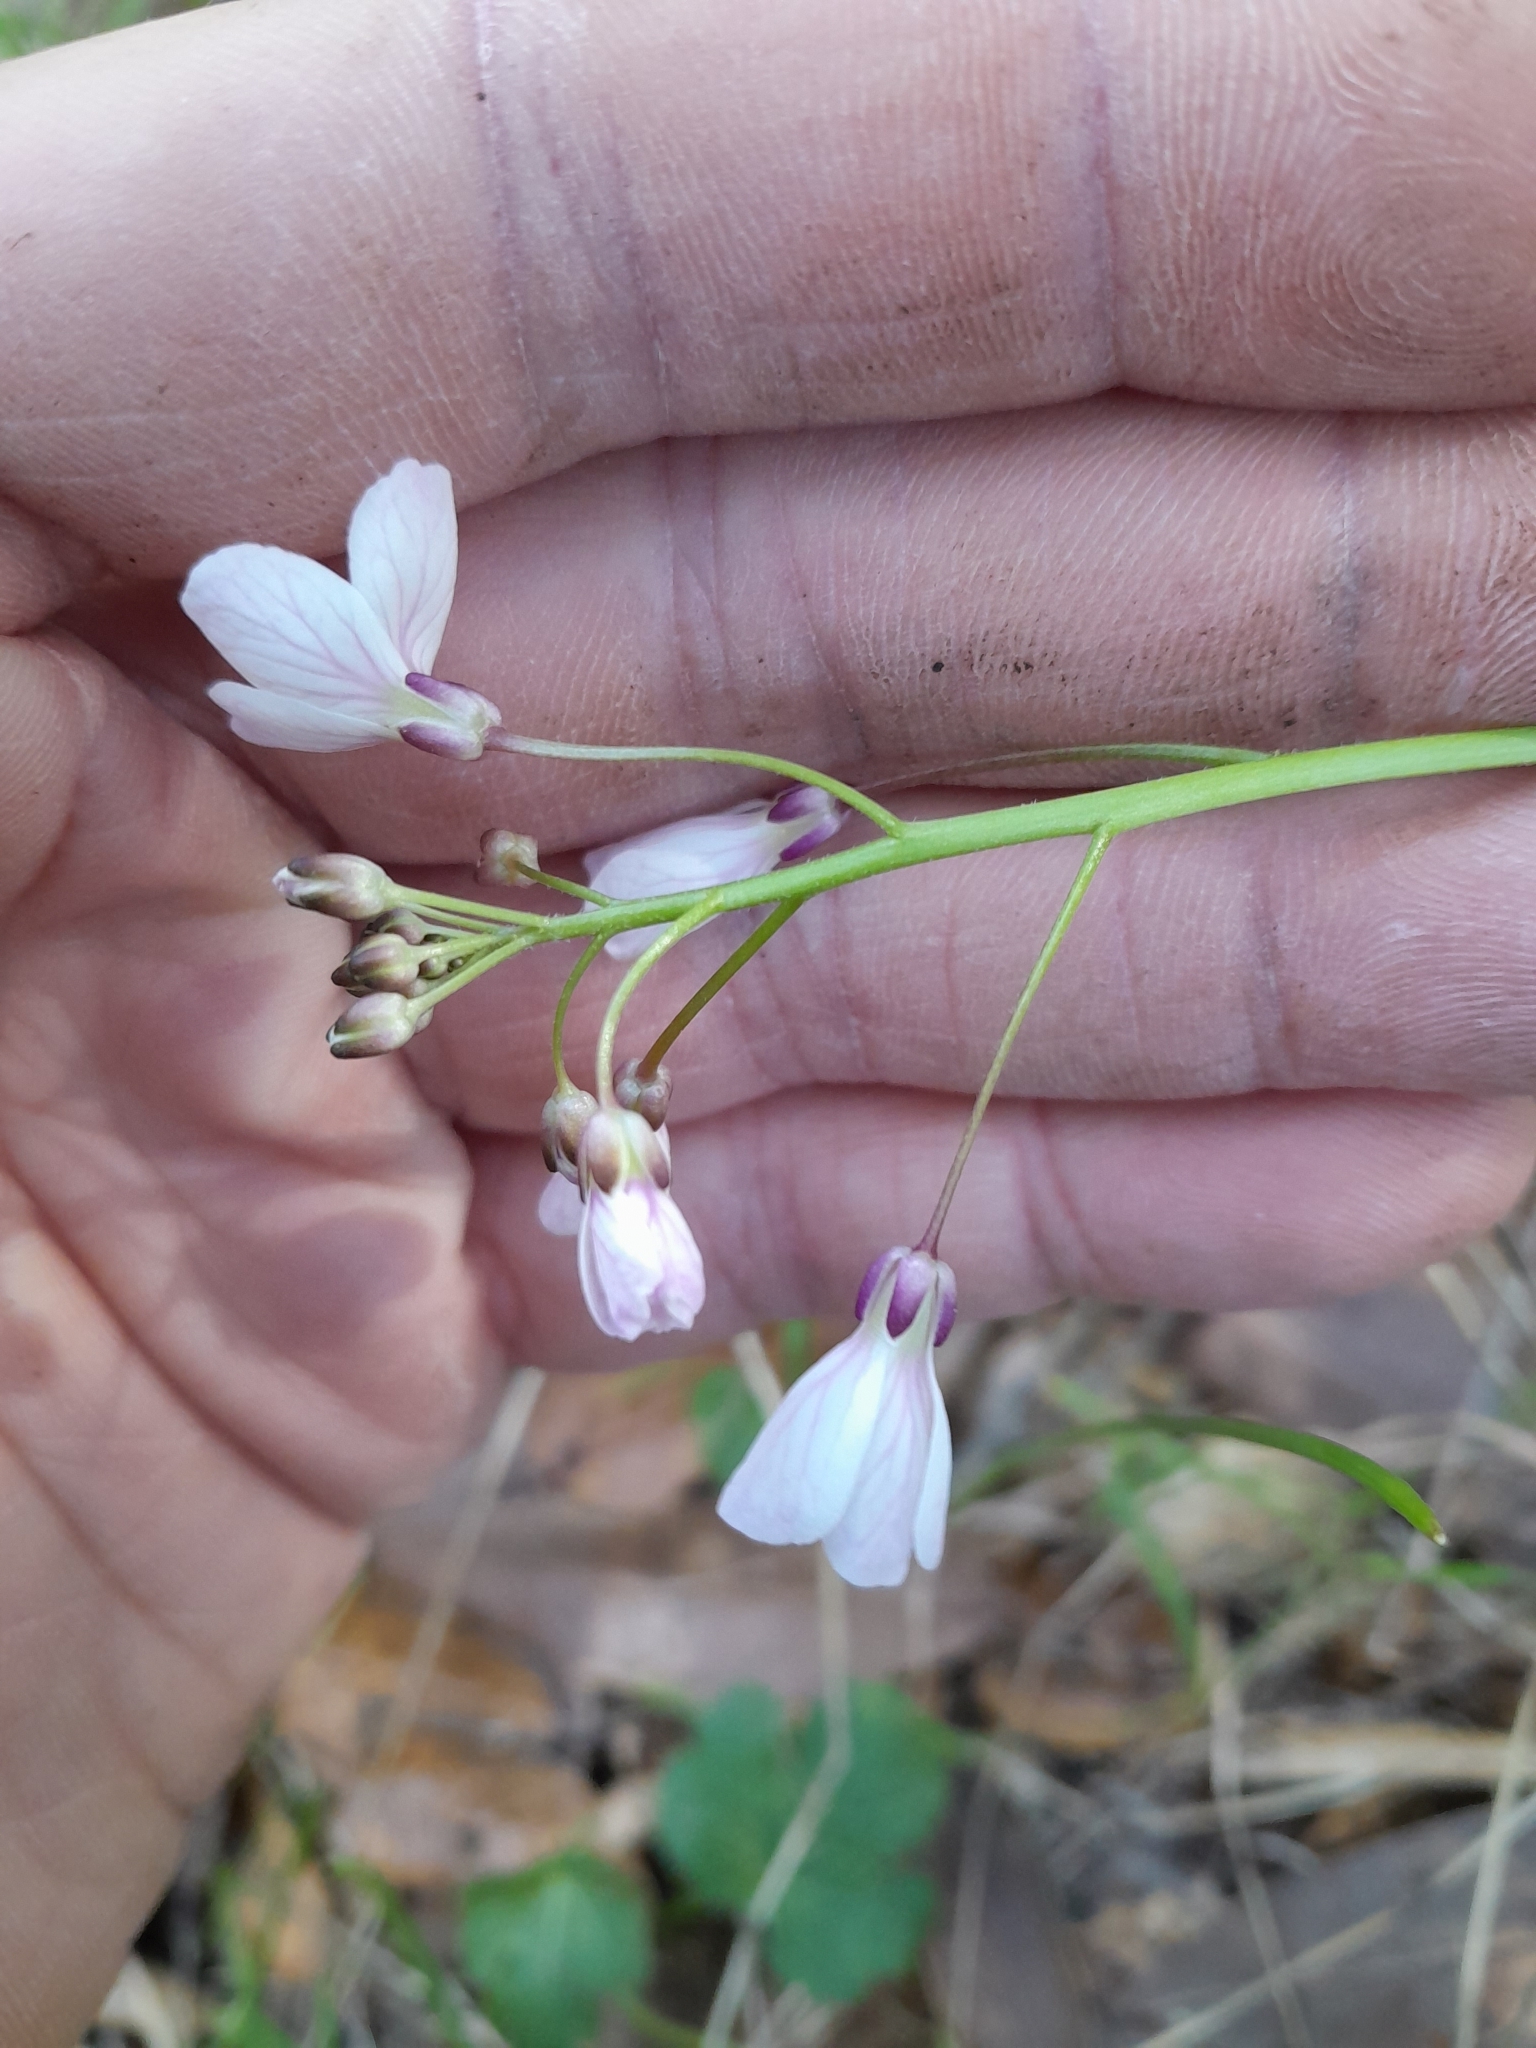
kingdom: Plantae
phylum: Tracheophyta
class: Magnoliopsida
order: Brassicales
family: Brassicaceae
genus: Cardamine
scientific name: Cardamine californica
